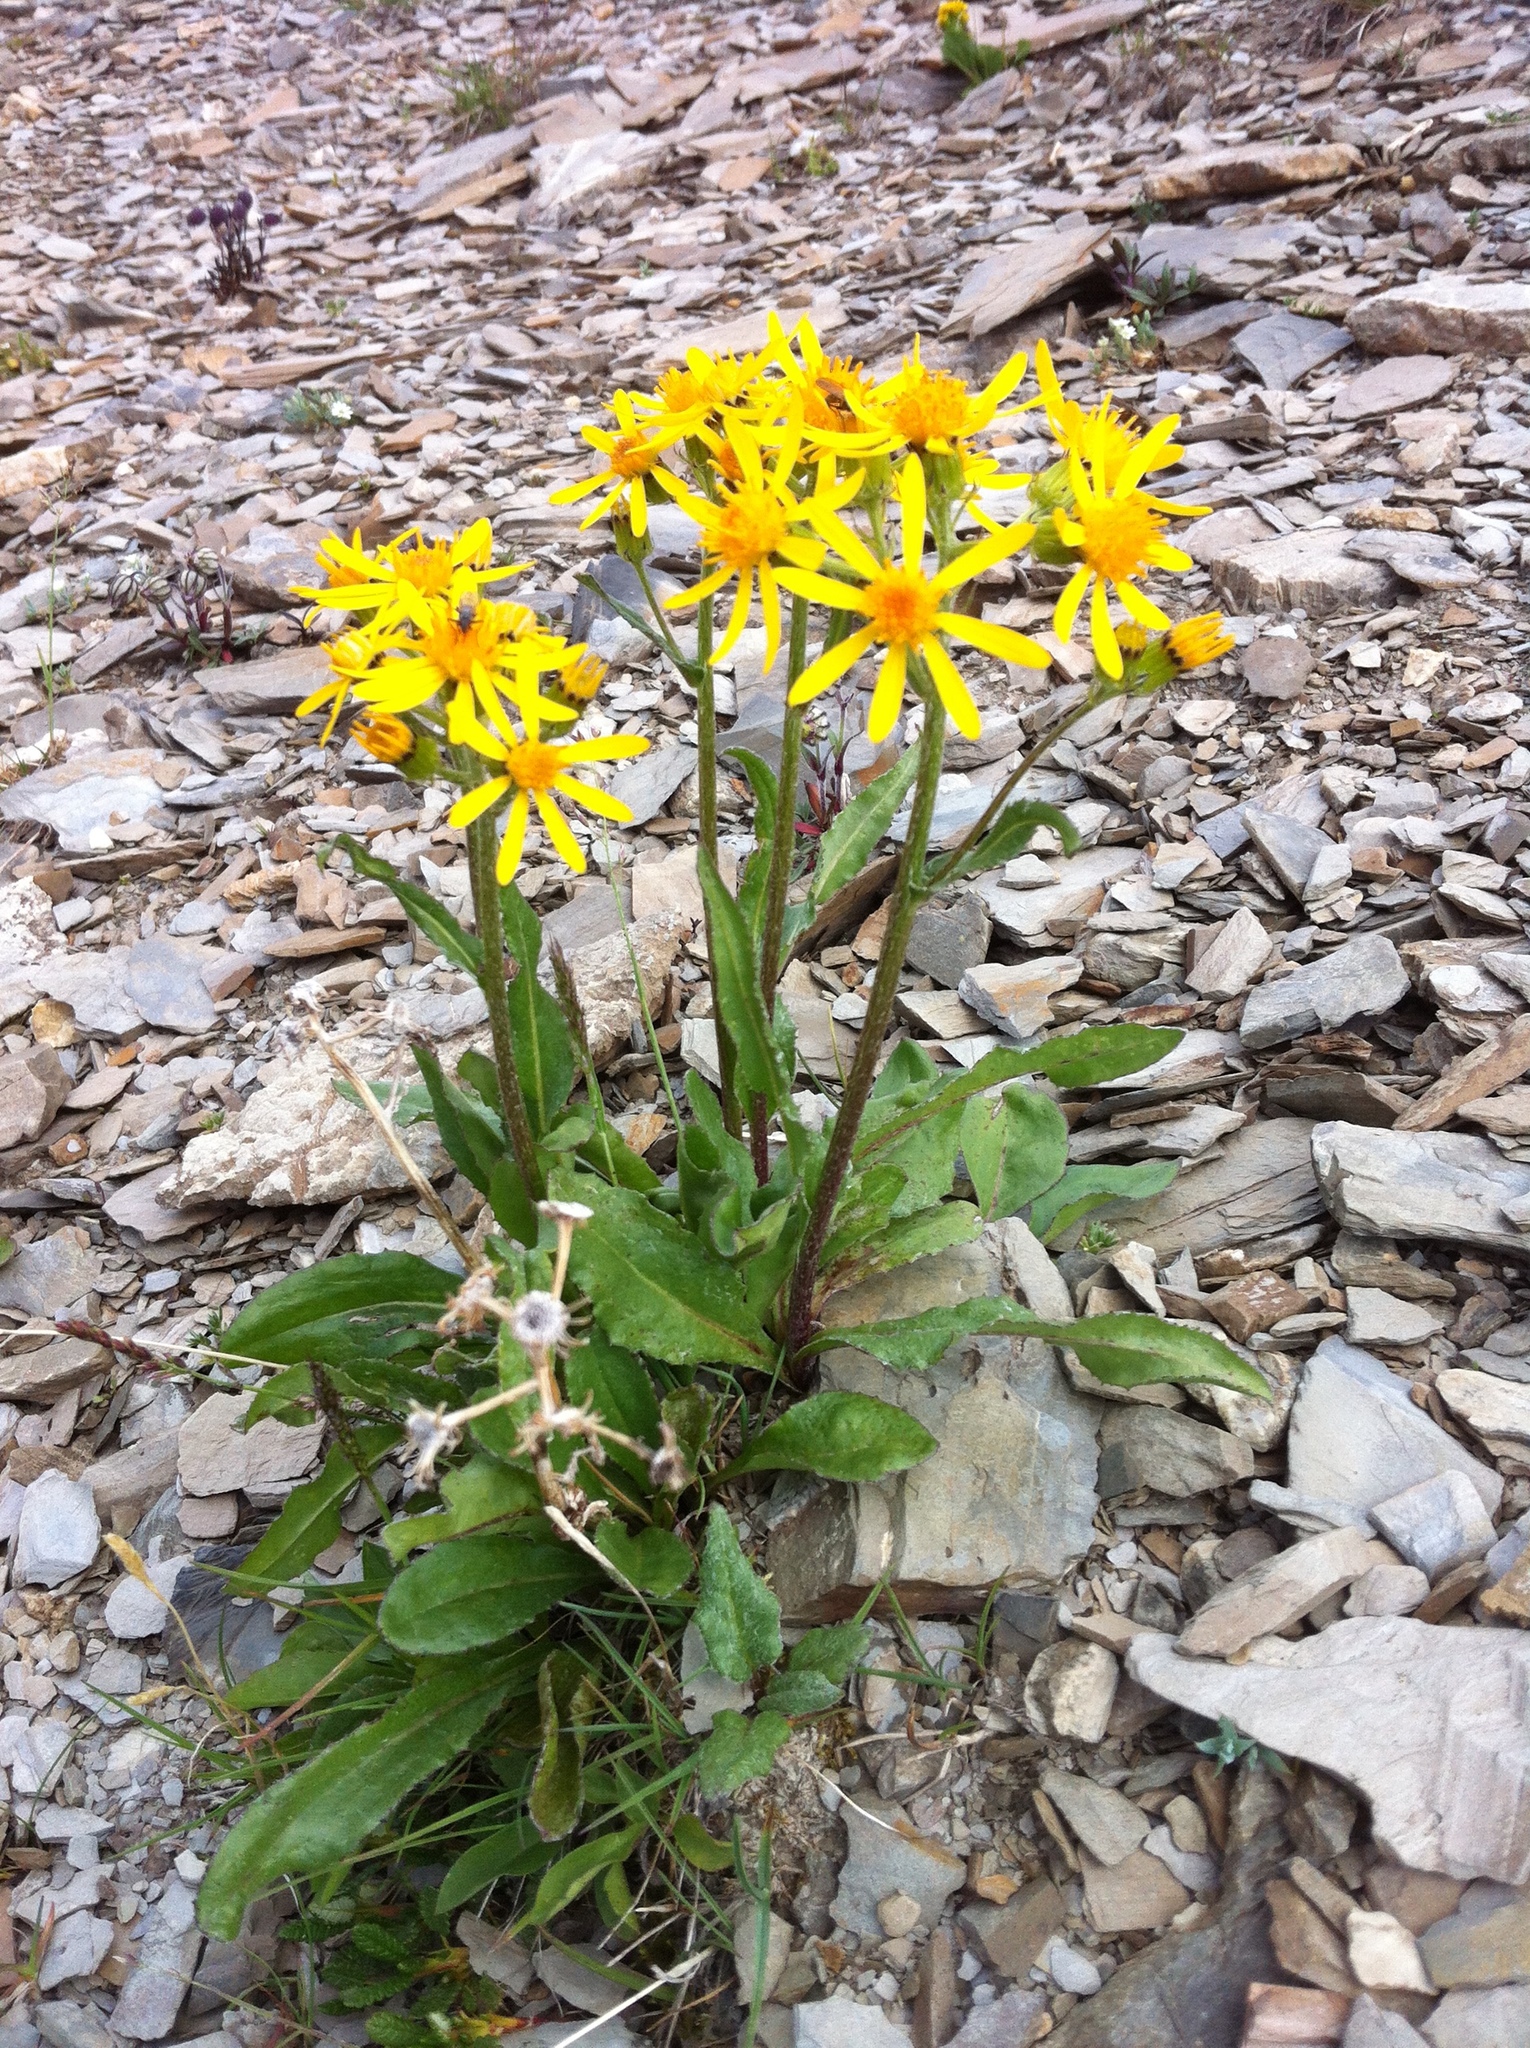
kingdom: Plantae
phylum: Tracheophyta
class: Magnoliopsida
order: Asterales
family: Asteraceae
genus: Senecio
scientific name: Senecio lugens
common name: Black-tip groundsel
